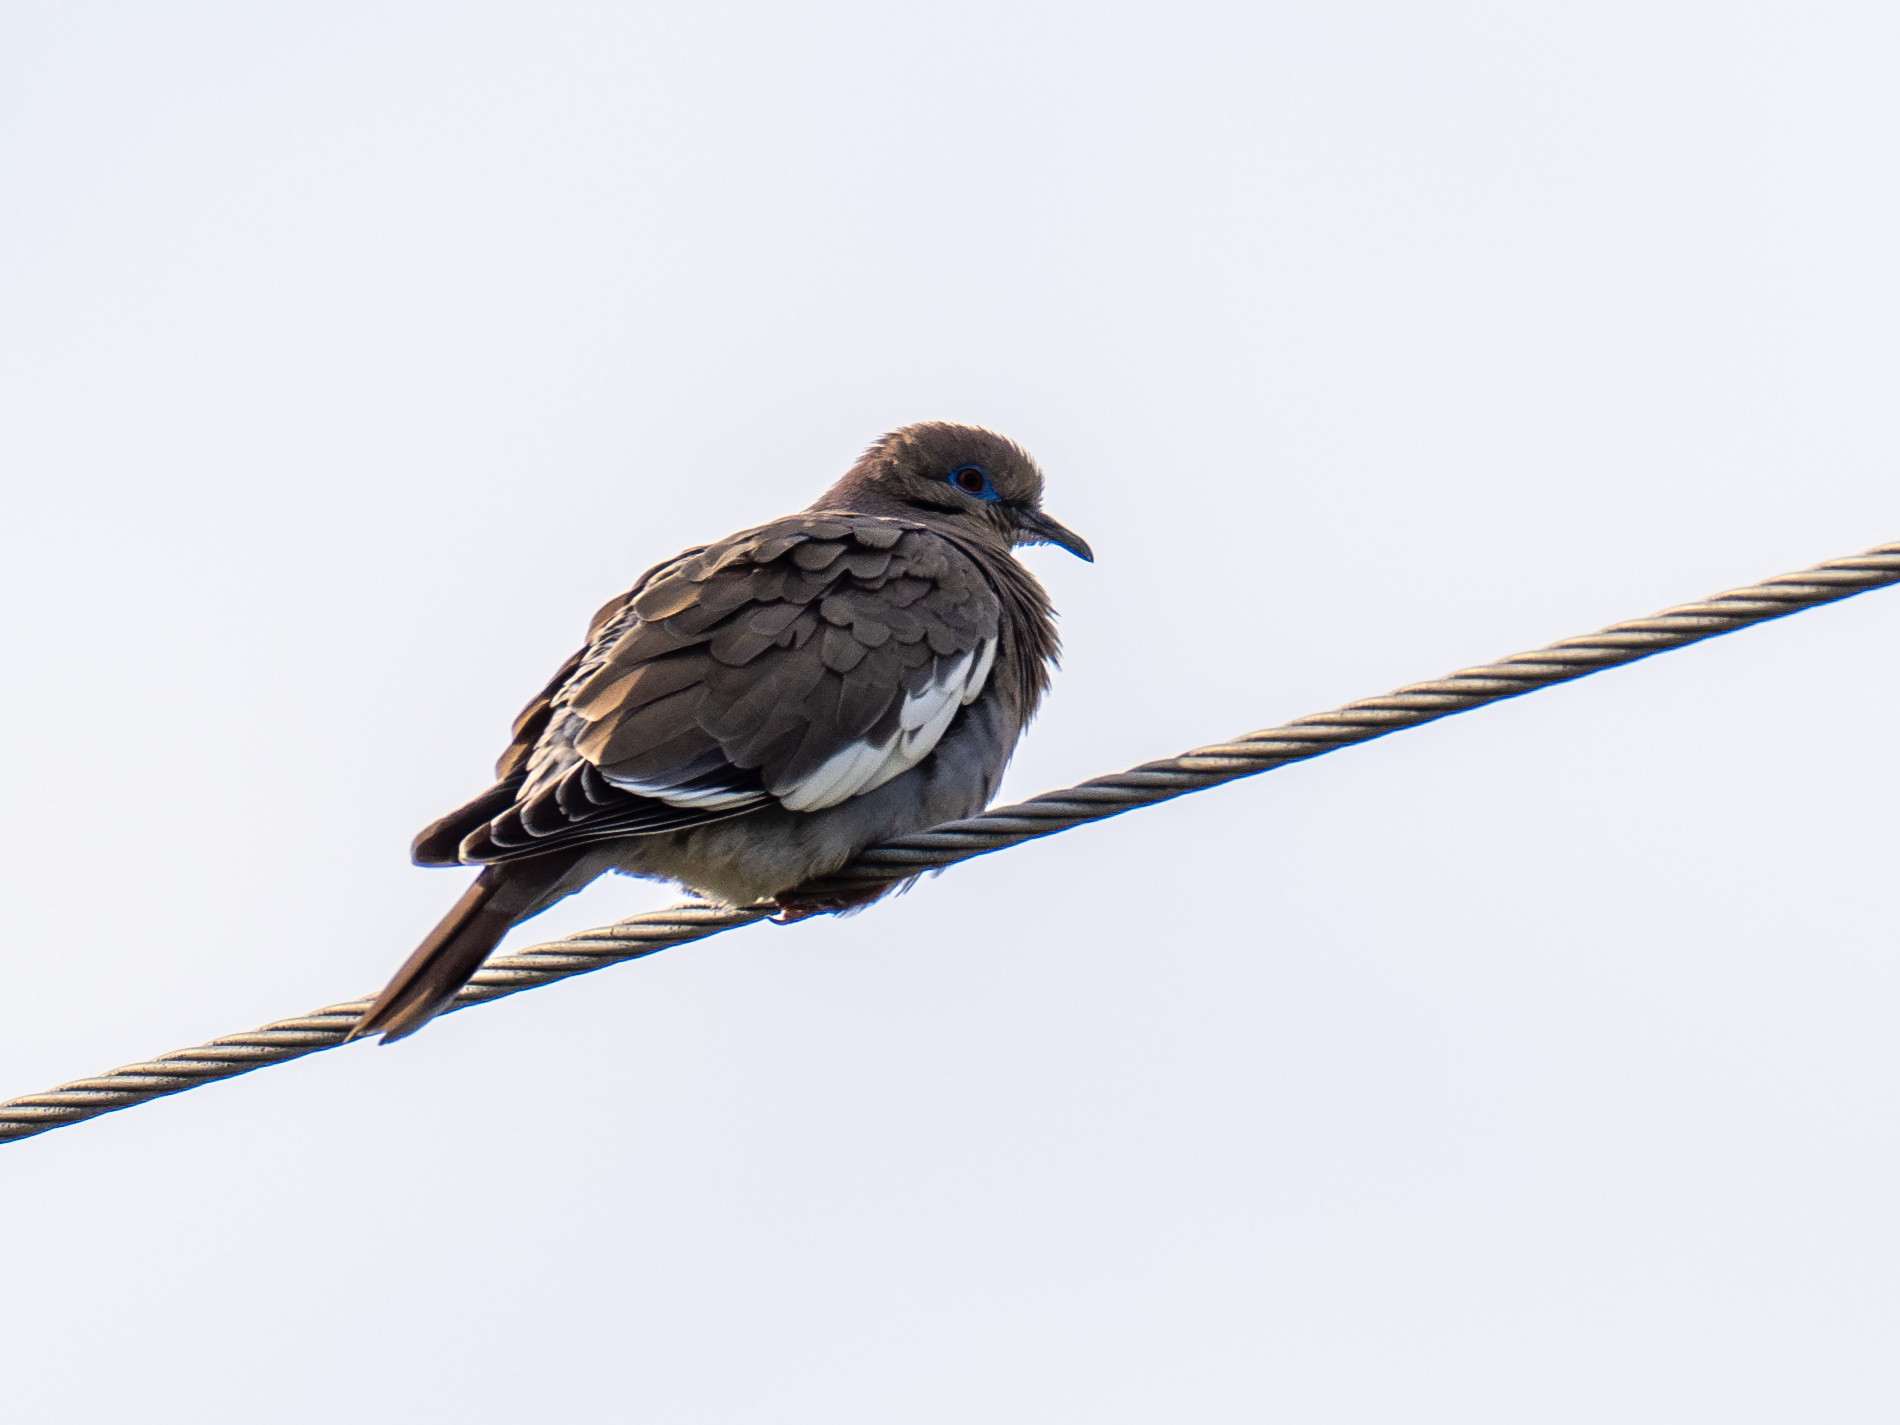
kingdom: Animalia
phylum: Chordata
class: Aves
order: Columbiformes
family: Columbidae
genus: Zenaida
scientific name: Zenaida asiatica
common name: White-winged dove
